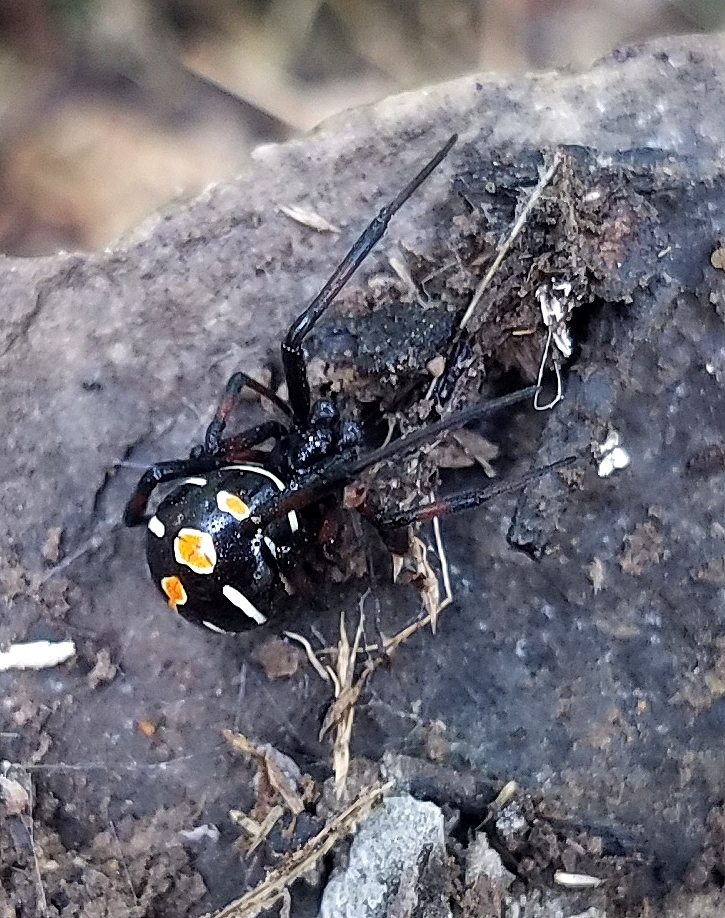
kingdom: Animalia
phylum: Arthropoda
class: Arachnida
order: Araneae
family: Theridiidae
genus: Latrodectus
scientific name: Latrodectus variolus
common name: Northern black widow
